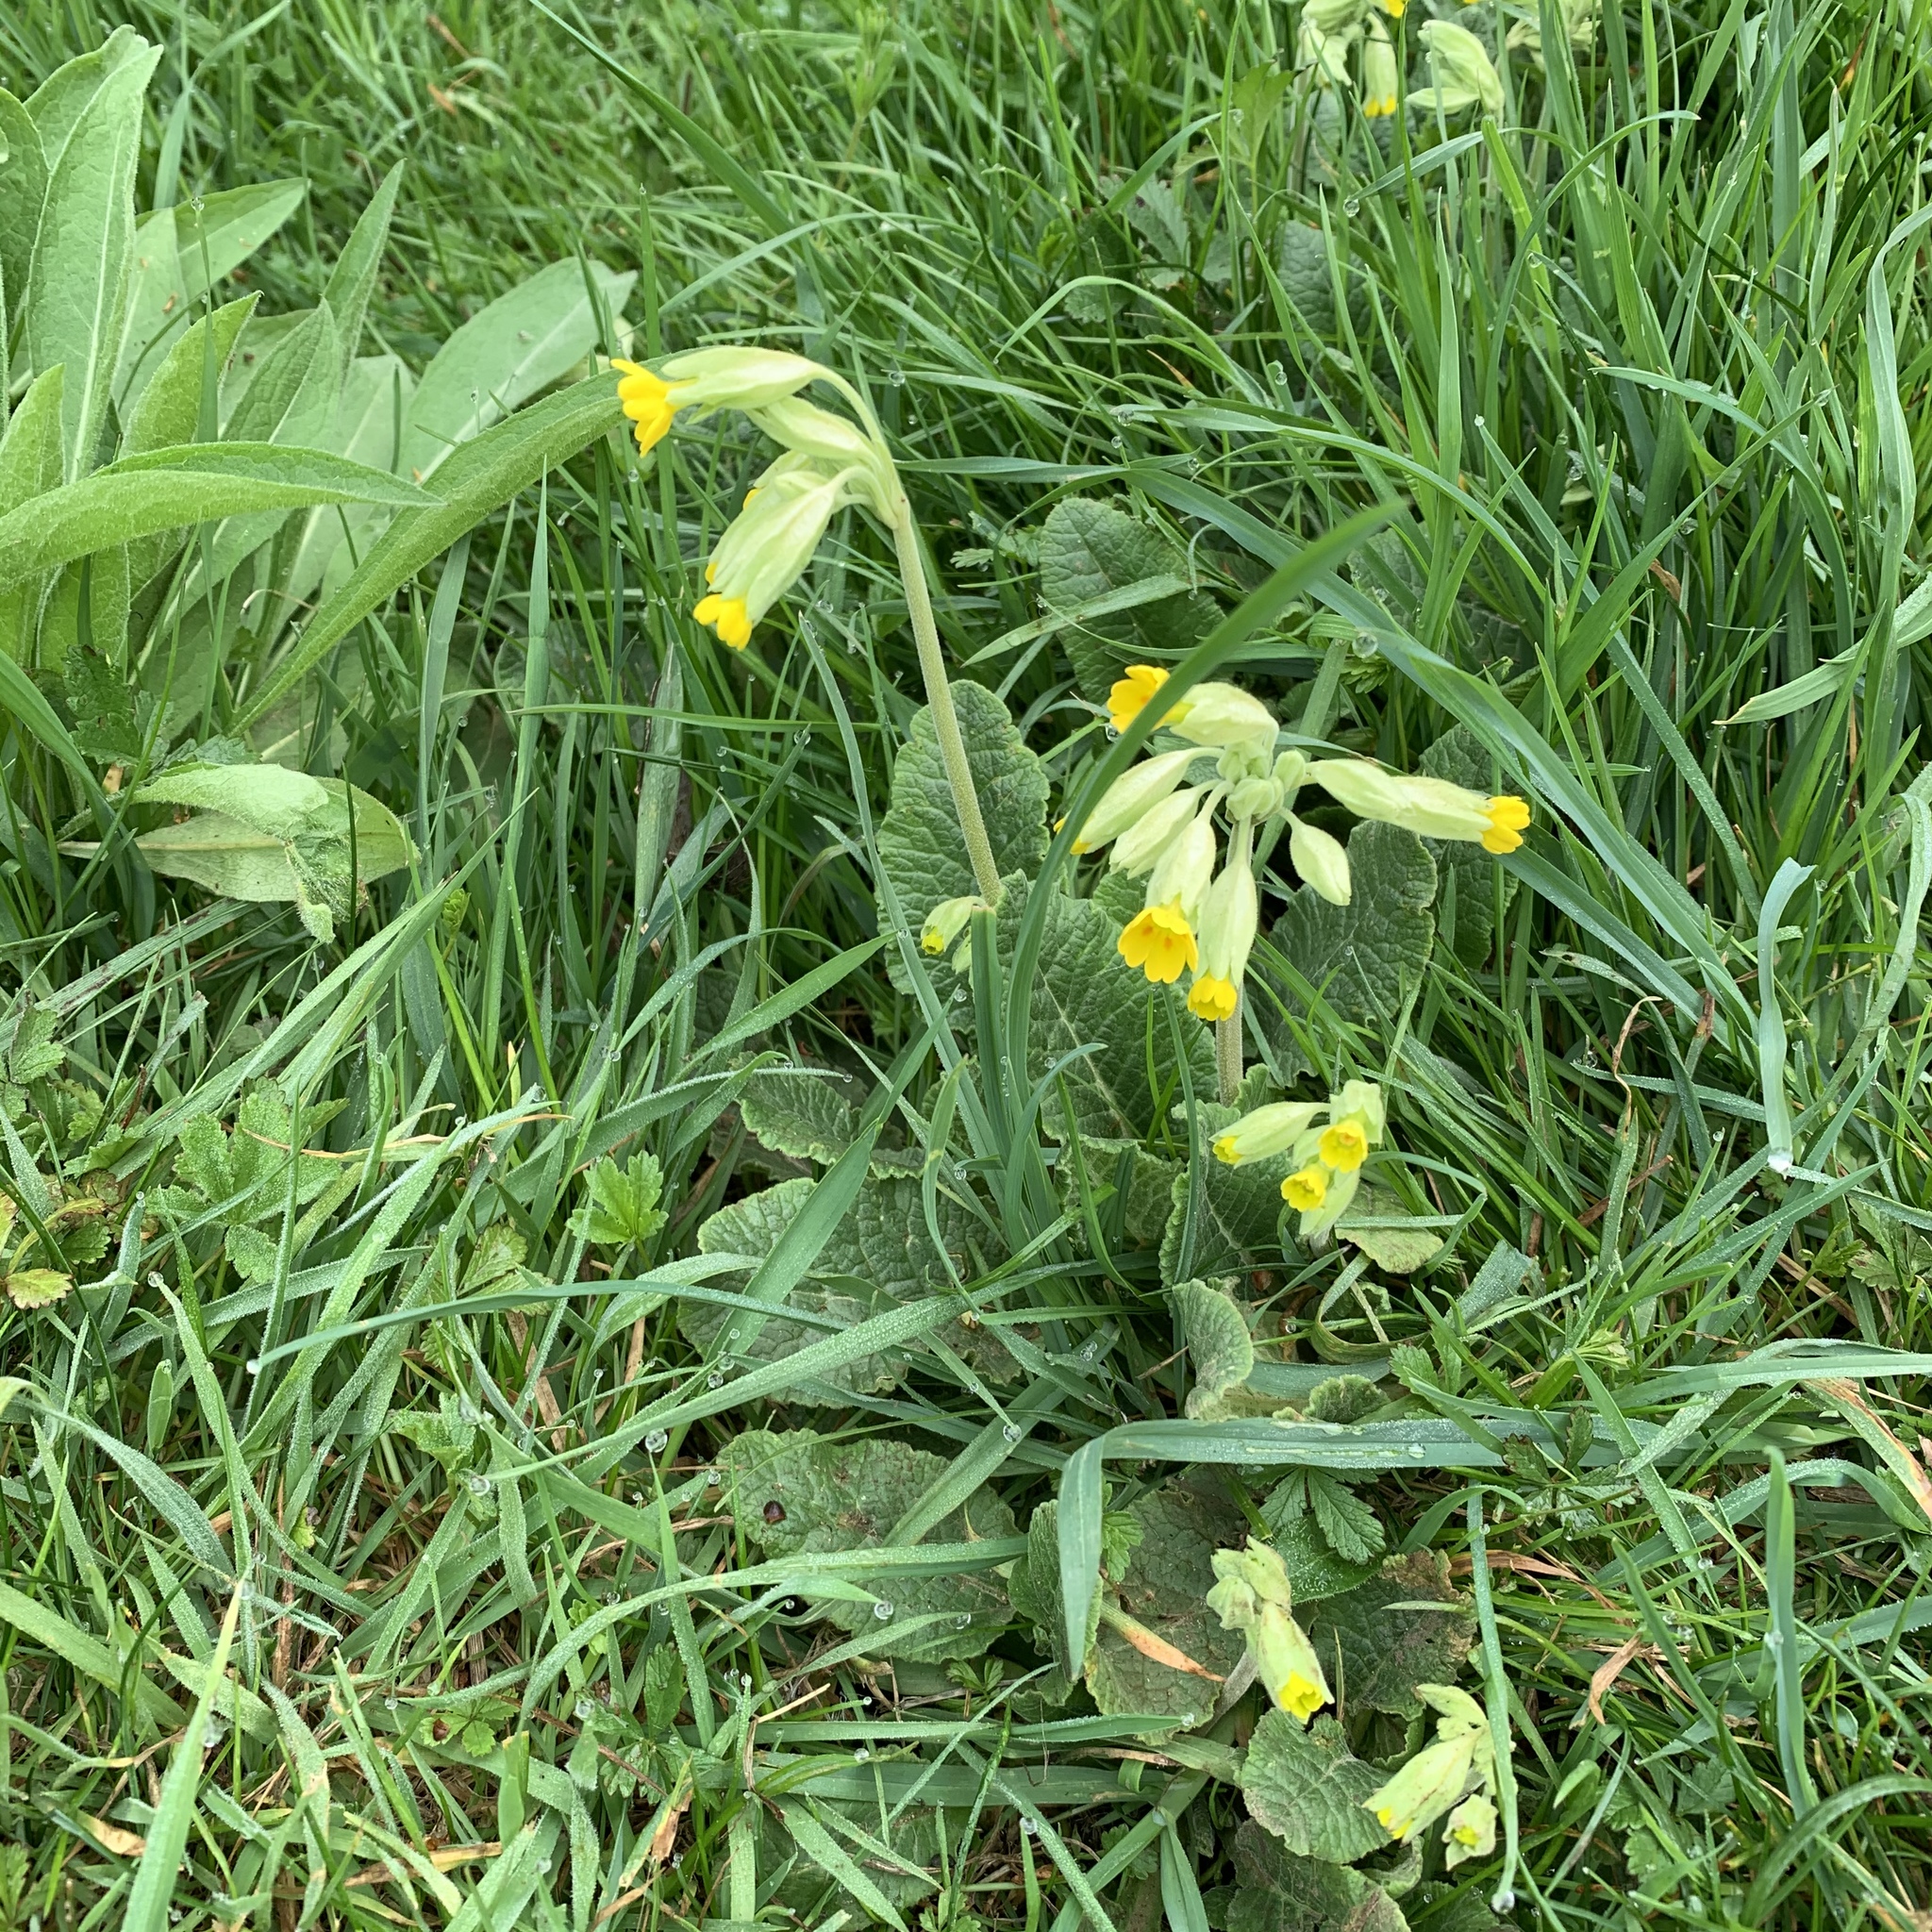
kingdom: Plantae
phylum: Tracheophyta
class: Magnoliopsida
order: Ericales
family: Primulaceae
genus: Primula
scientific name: Primula veris
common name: Cowslip
